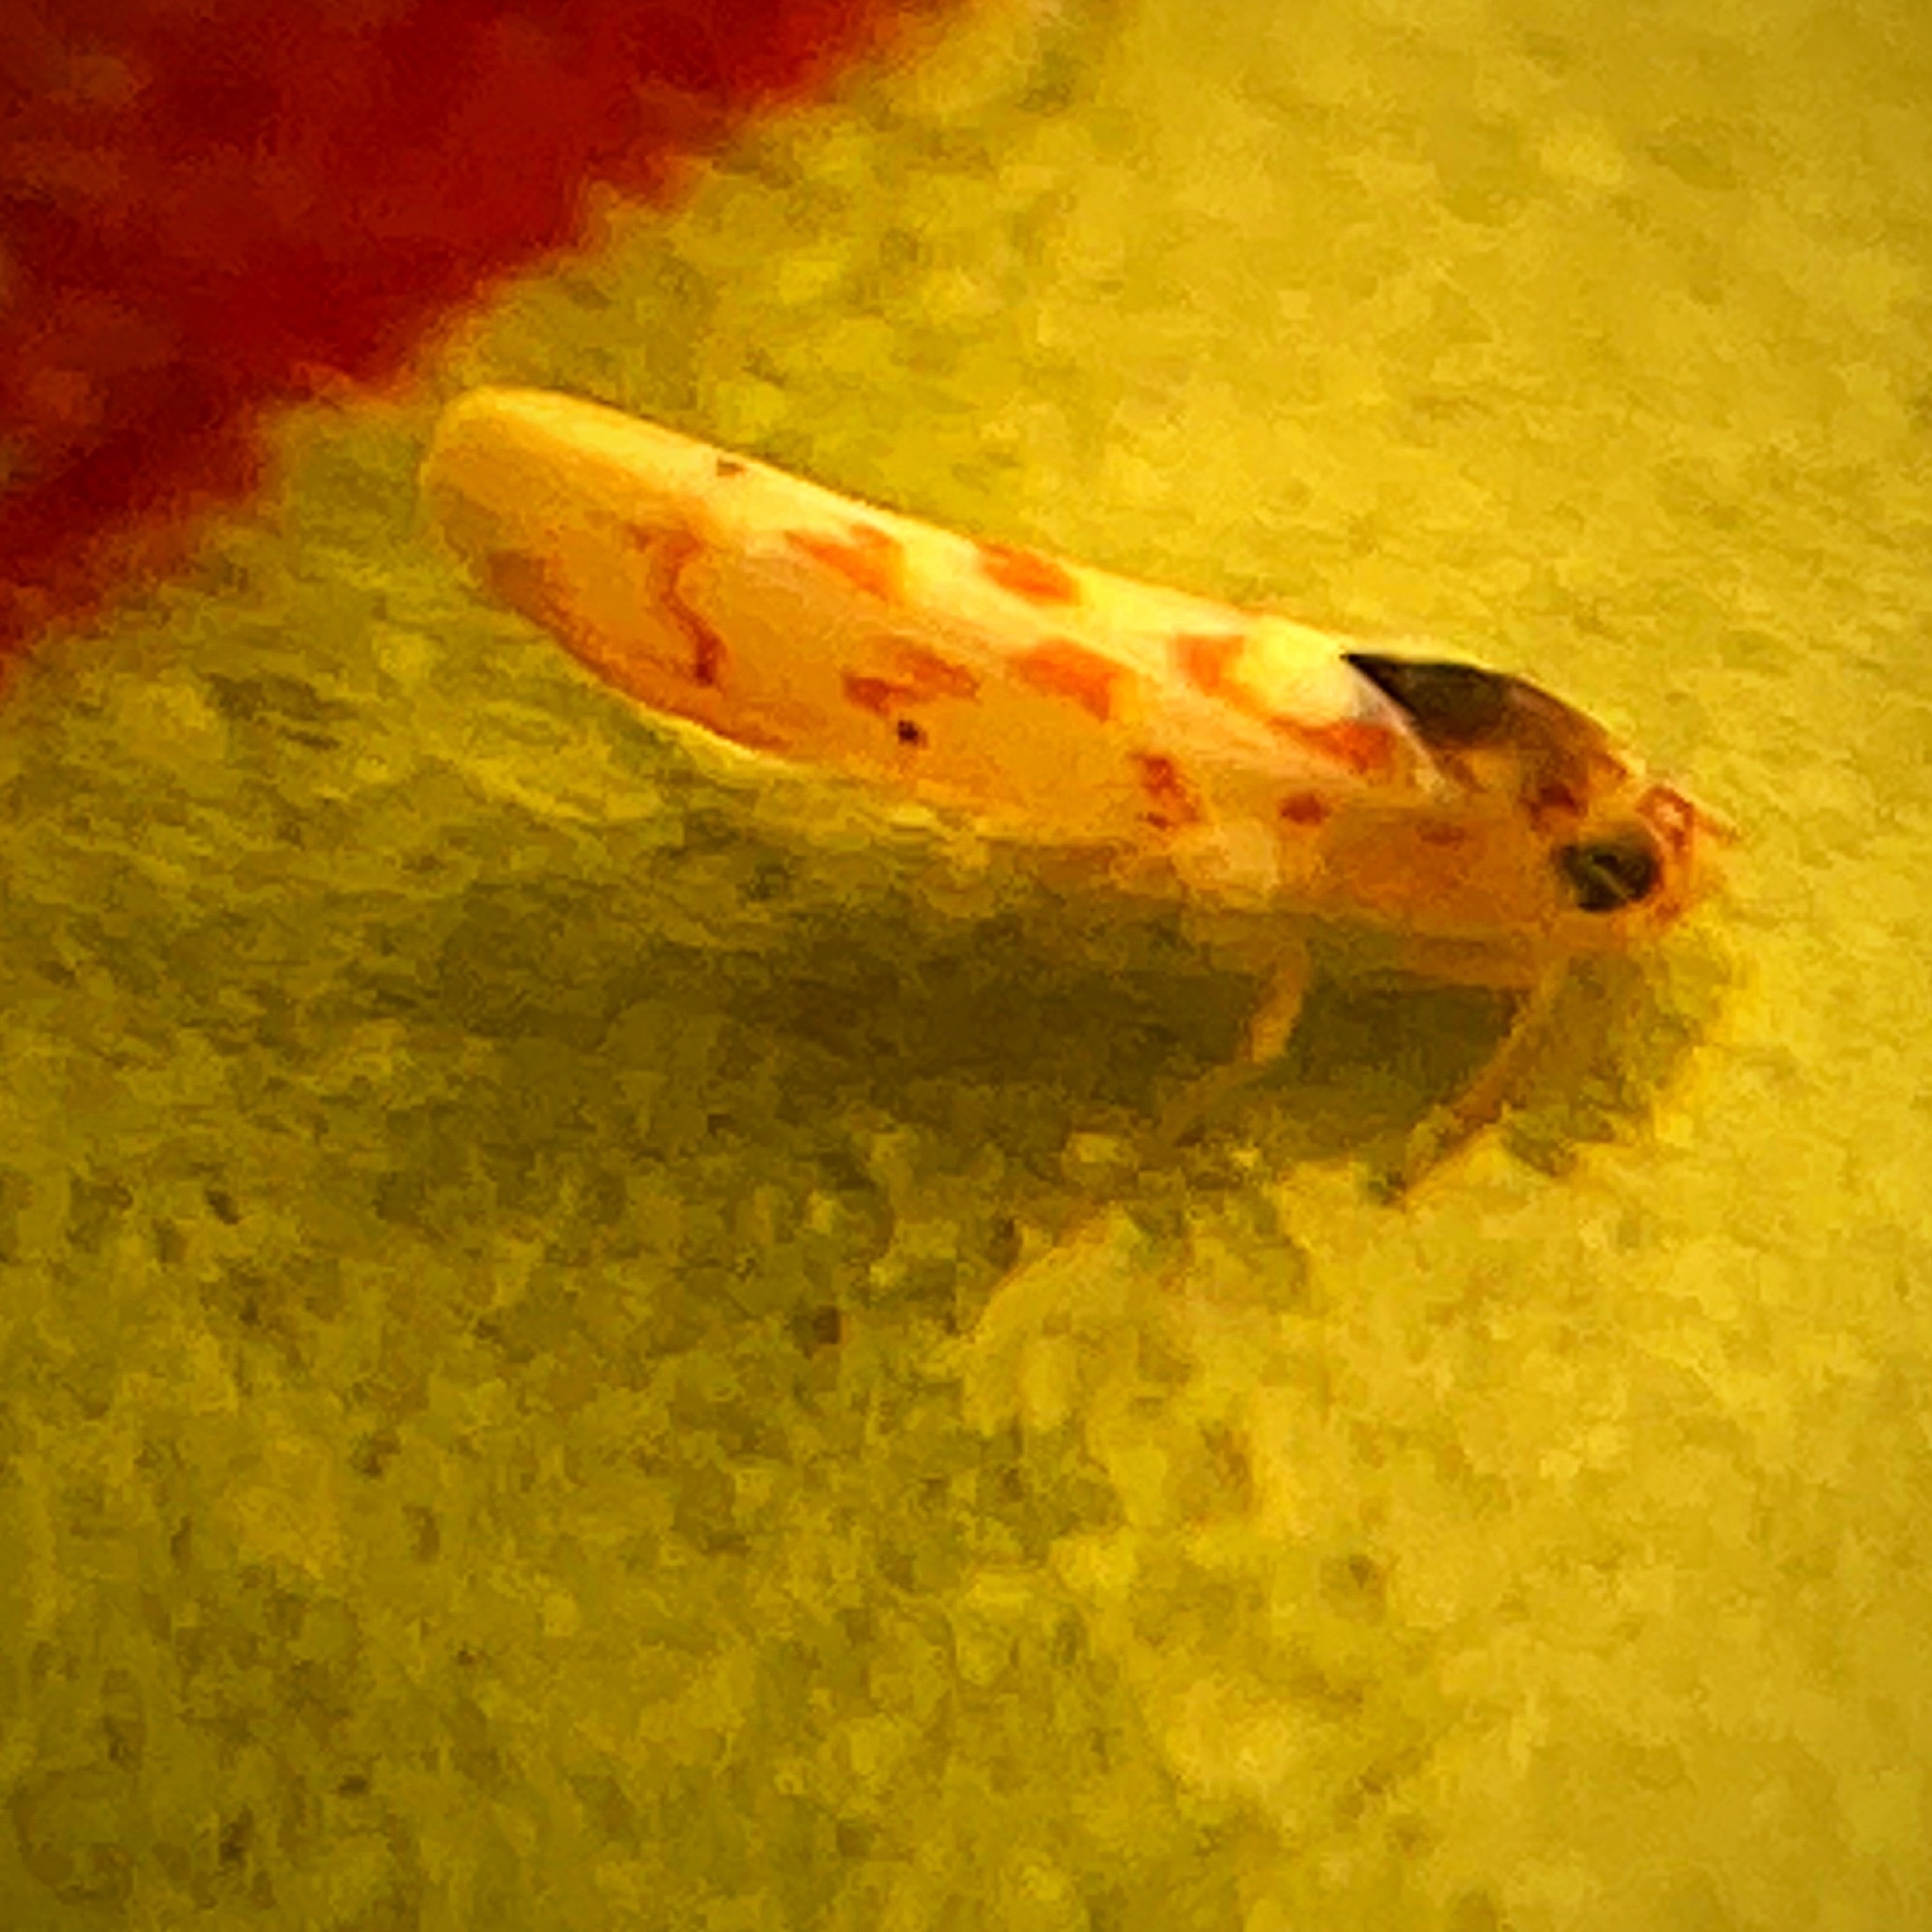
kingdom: Animalia
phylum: Arthropoda
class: Insecta
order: Hemiptera
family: Cicadellidae
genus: Eratoneura
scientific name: Eratoneura ardens
